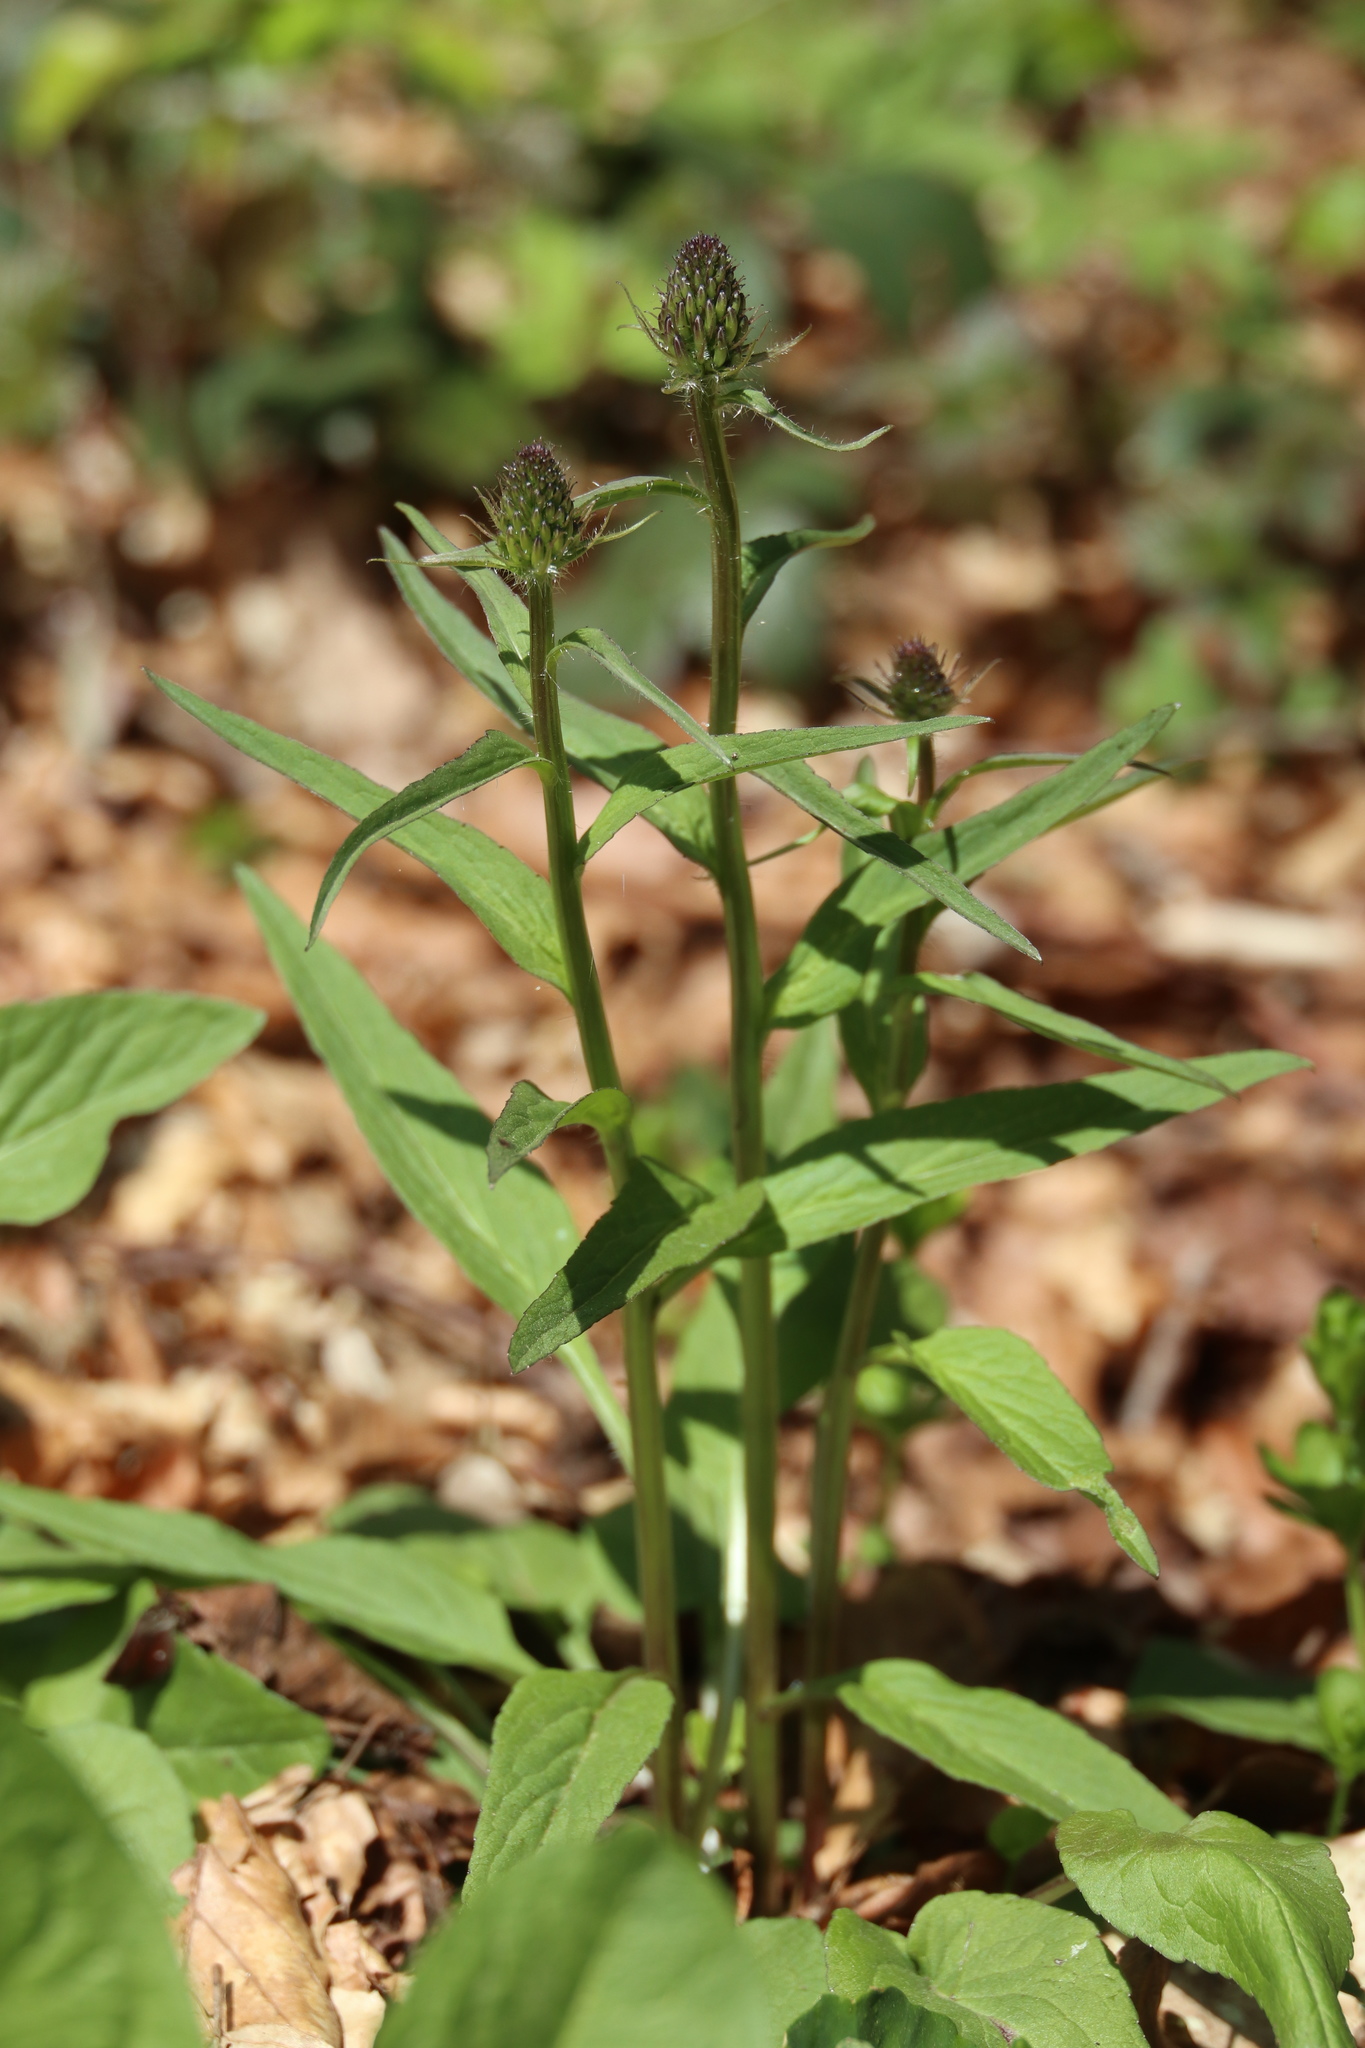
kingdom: Plantae
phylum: Tracheophyta
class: Magnoliopsida
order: Asterales
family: Campanulaceae
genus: Phyteuma
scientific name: Phyteuma nigrum
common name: Black rampion
